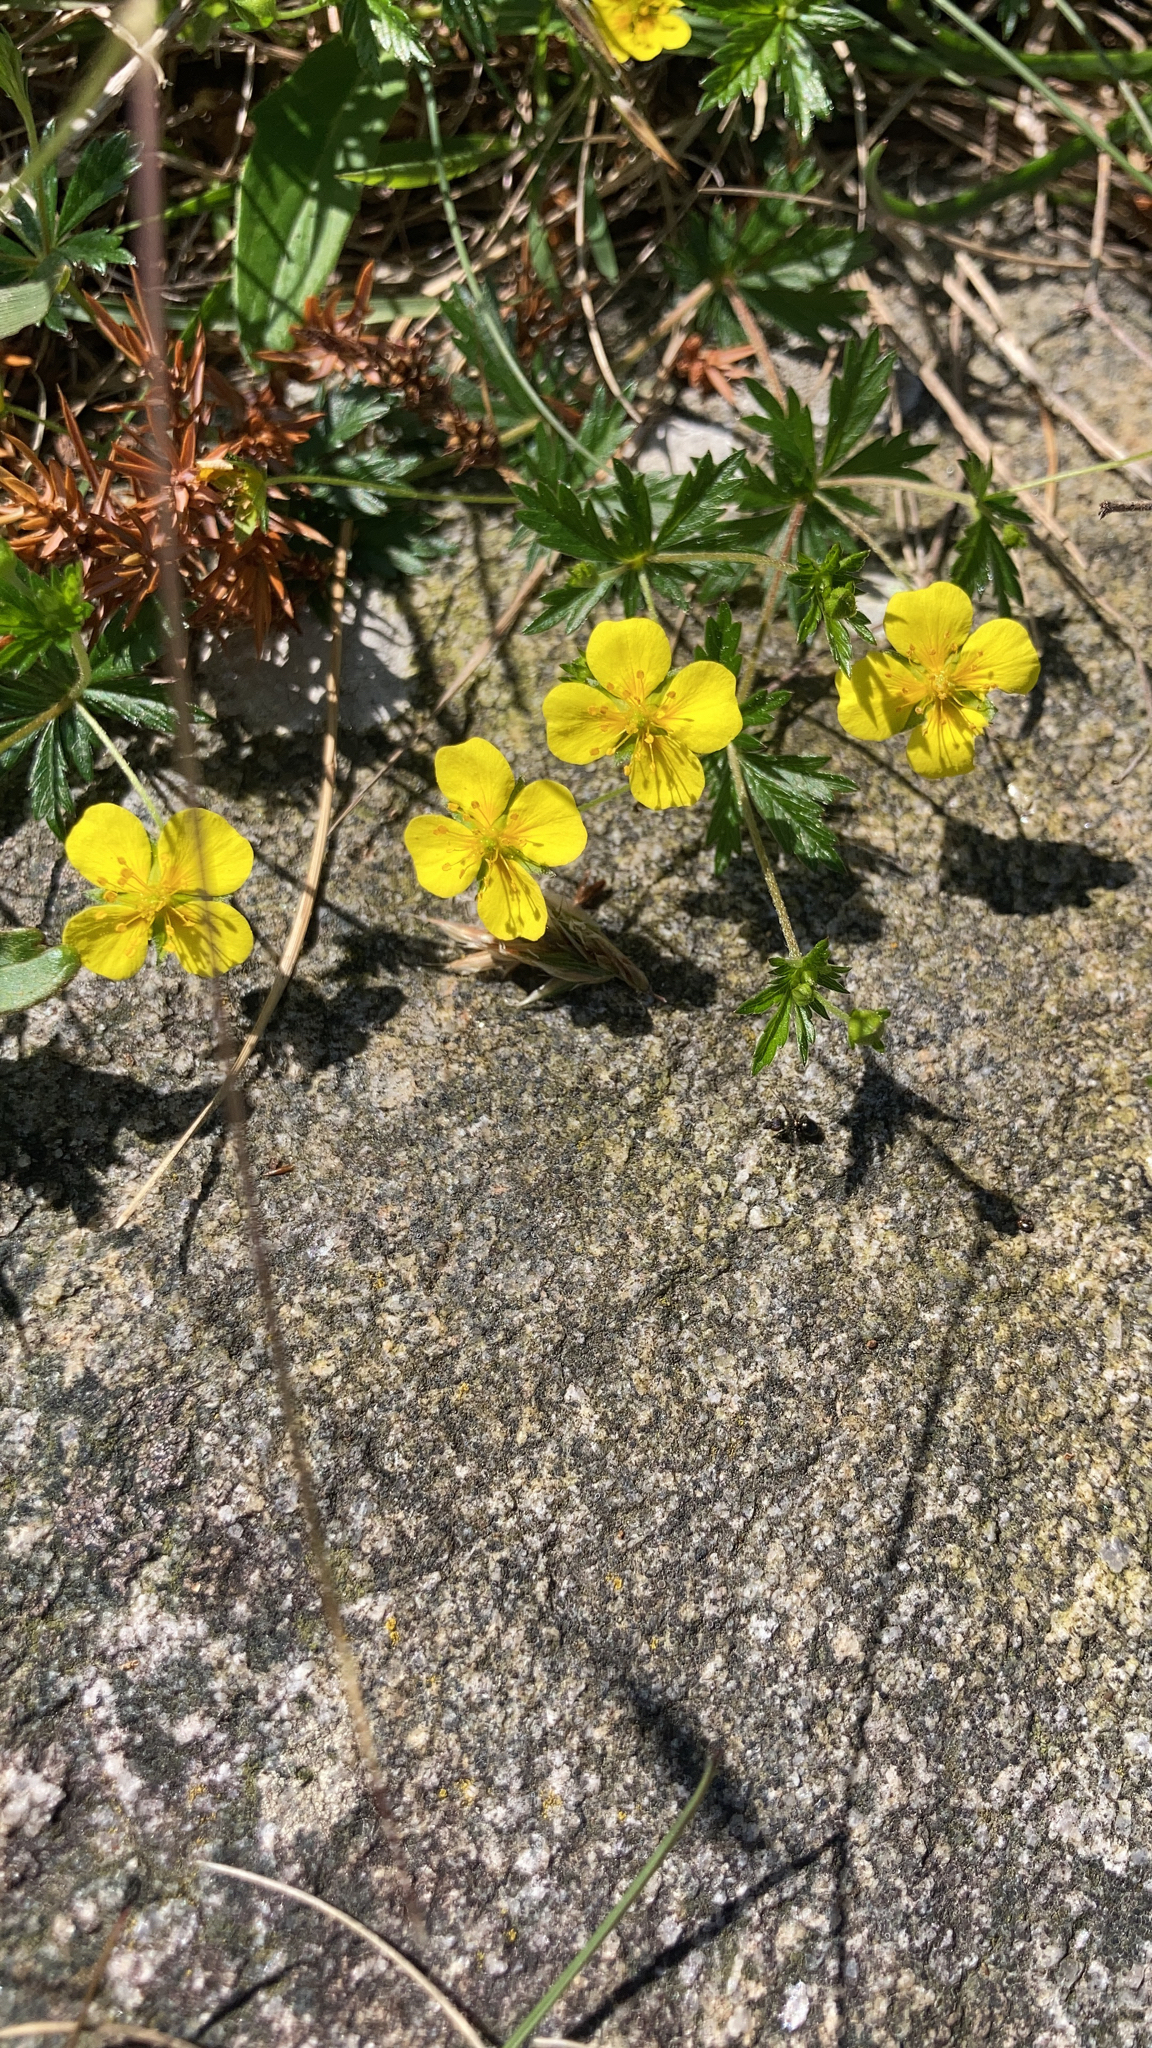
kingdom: Plantae
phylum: Tracheophyta
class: Magnoliopsida
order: Rosales
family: Rosaceae
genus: Potentilla
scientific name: Potentilla erecta
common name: Tormentil
